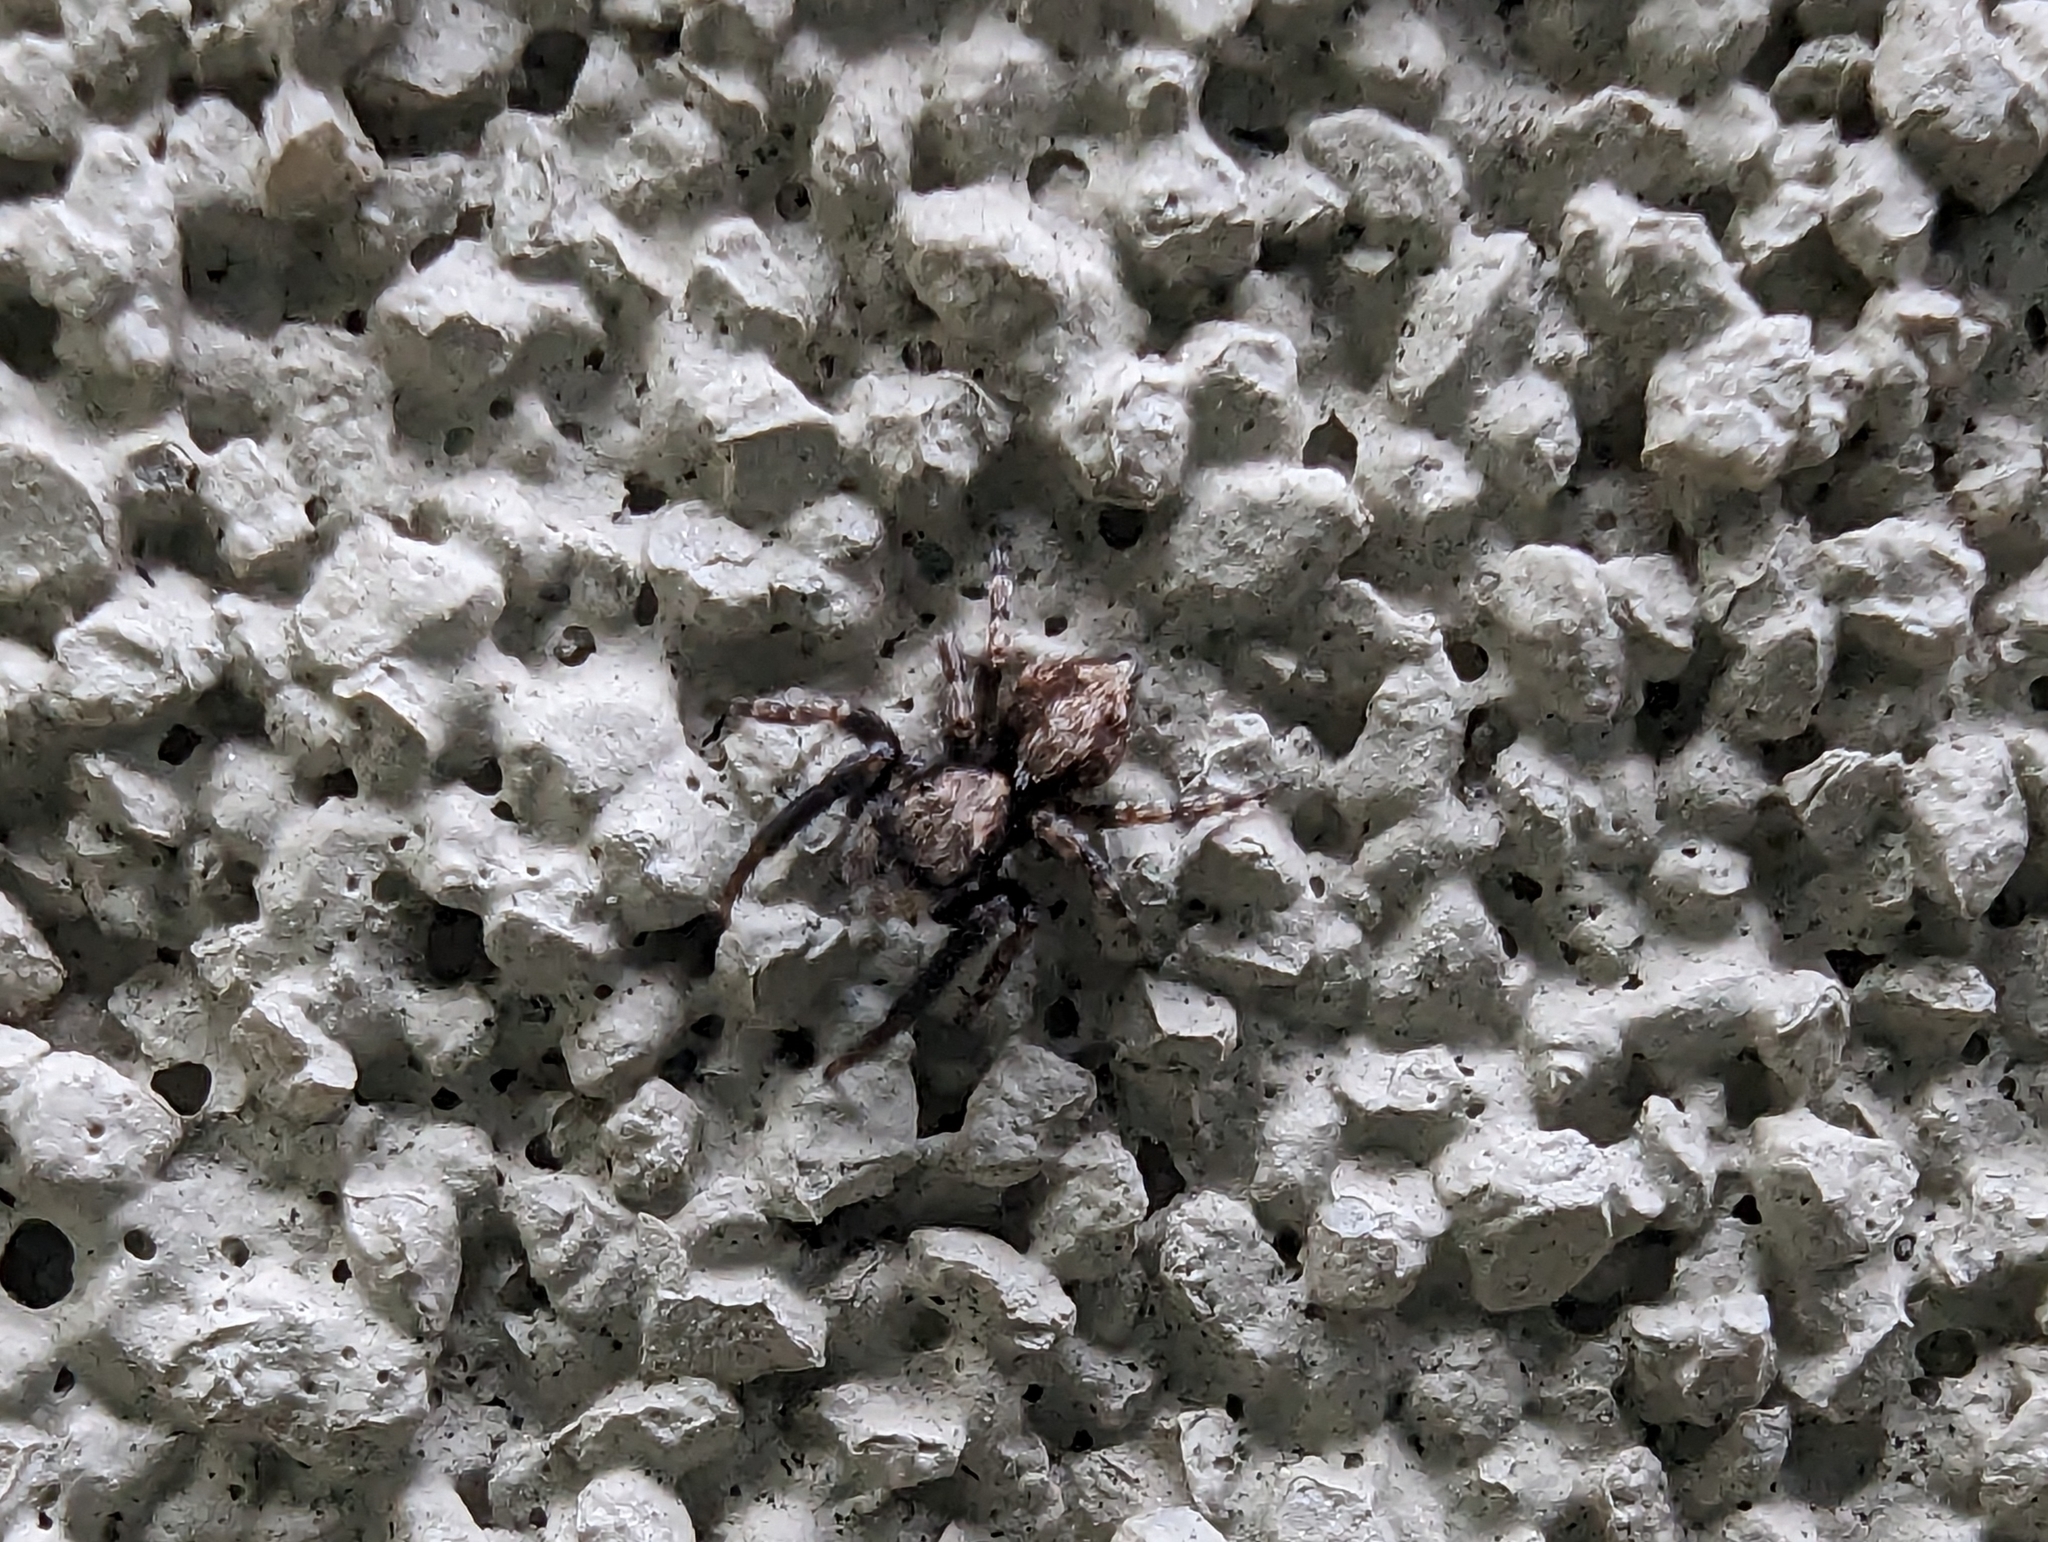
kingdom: Animalia
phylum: Arthropoda
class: Arachnida
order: Araneae
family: Salticidae
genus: Pseudeuophrys
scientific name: Pseudeuophrys lanigera
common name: Jumping spider
